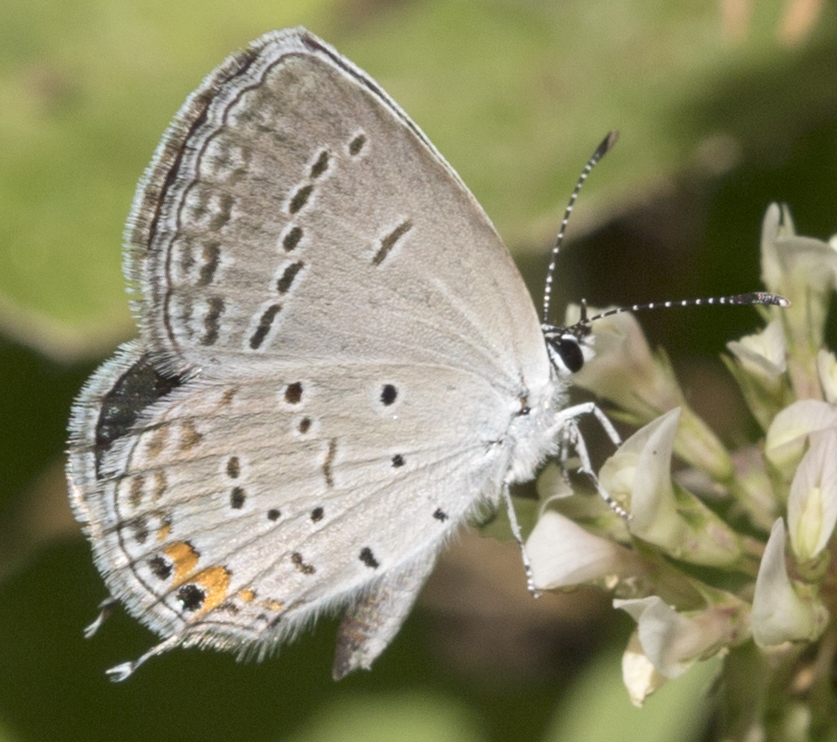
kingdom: Animalia
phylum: Arthropoda
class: Insecta
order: Lepidoptera
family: Lycaenidae
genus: Elkalyce
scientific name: Elkalyce comyntas
